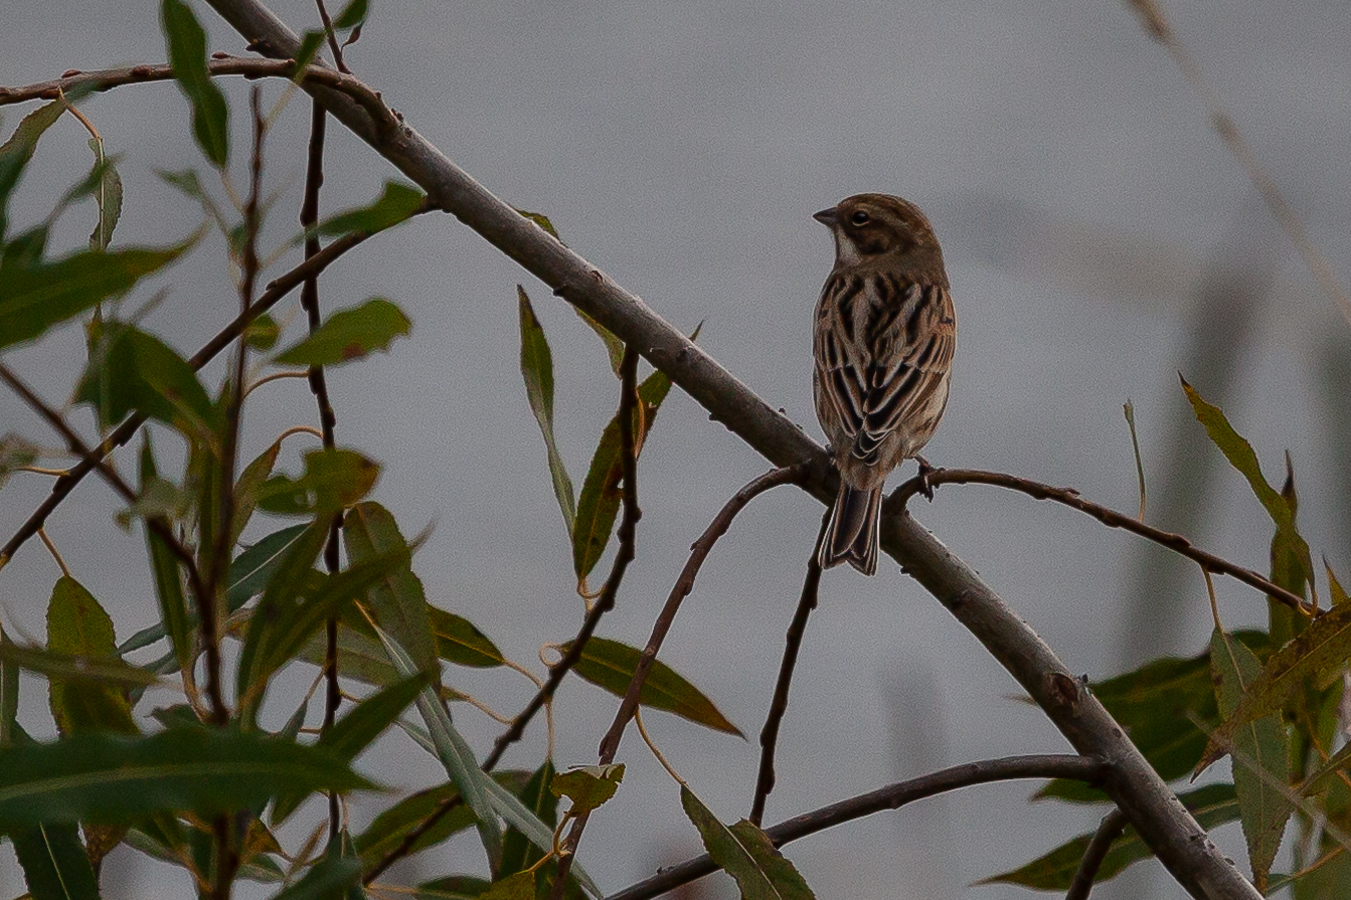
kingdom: Animalia
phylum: Chordata
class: Aves
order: Passeriformes
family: Emberizidae
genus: Emberiza
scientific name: Emberiza schoeniclus
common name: Reed bunting
